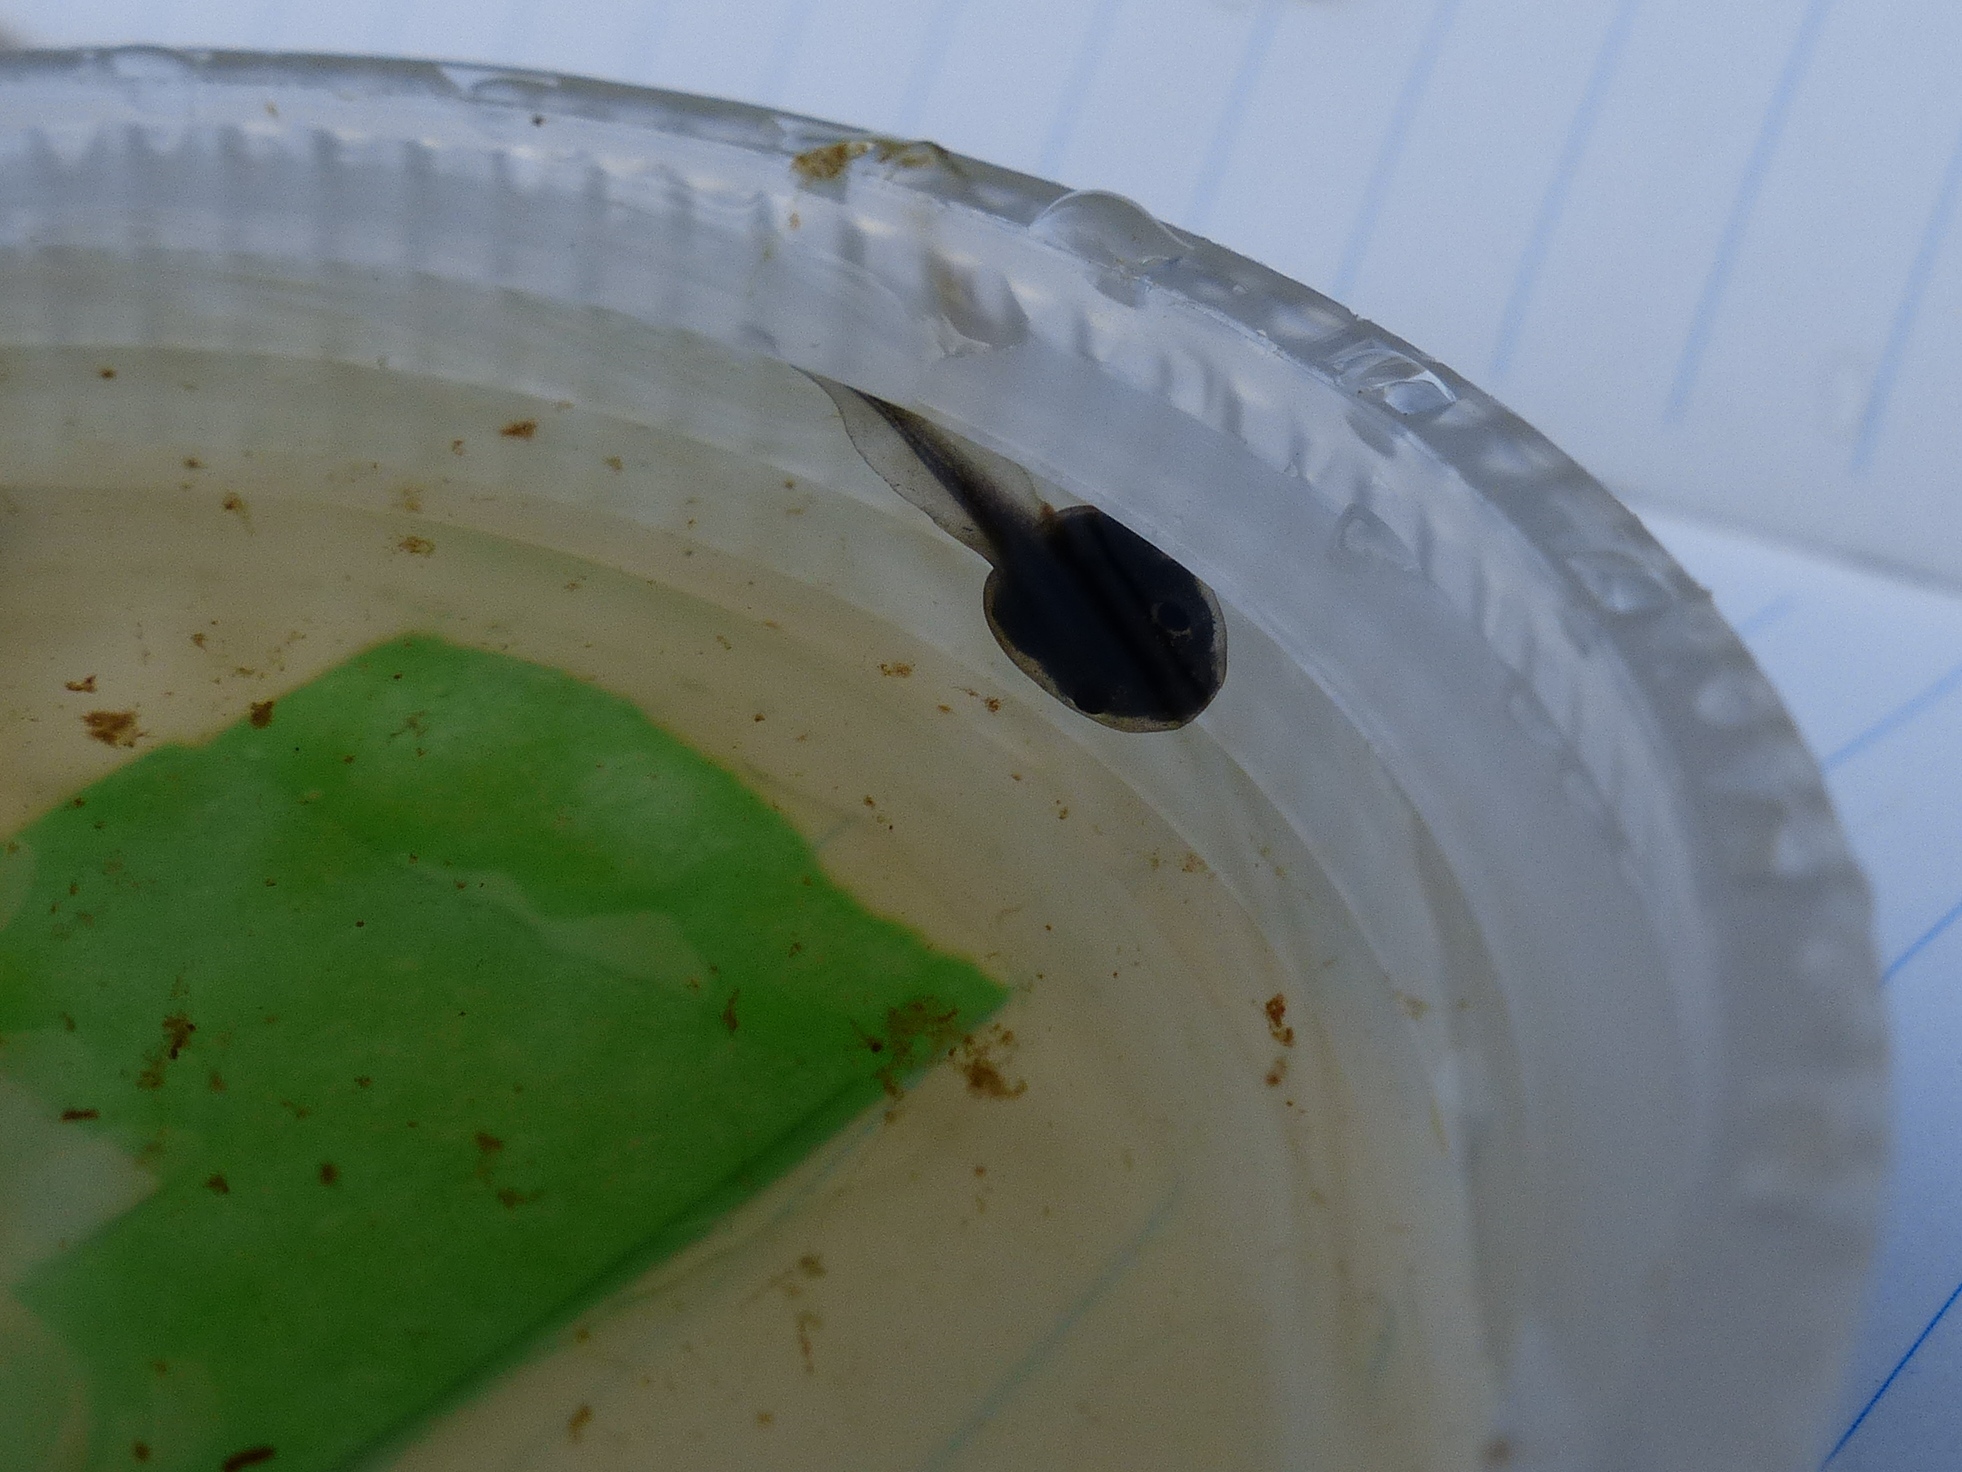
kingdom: Animalia
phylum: Chordata
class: Amphibia
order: Anura
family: Ranidae
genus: Lithobates
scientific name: Lithobates sylvaticus
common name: Wood frog
